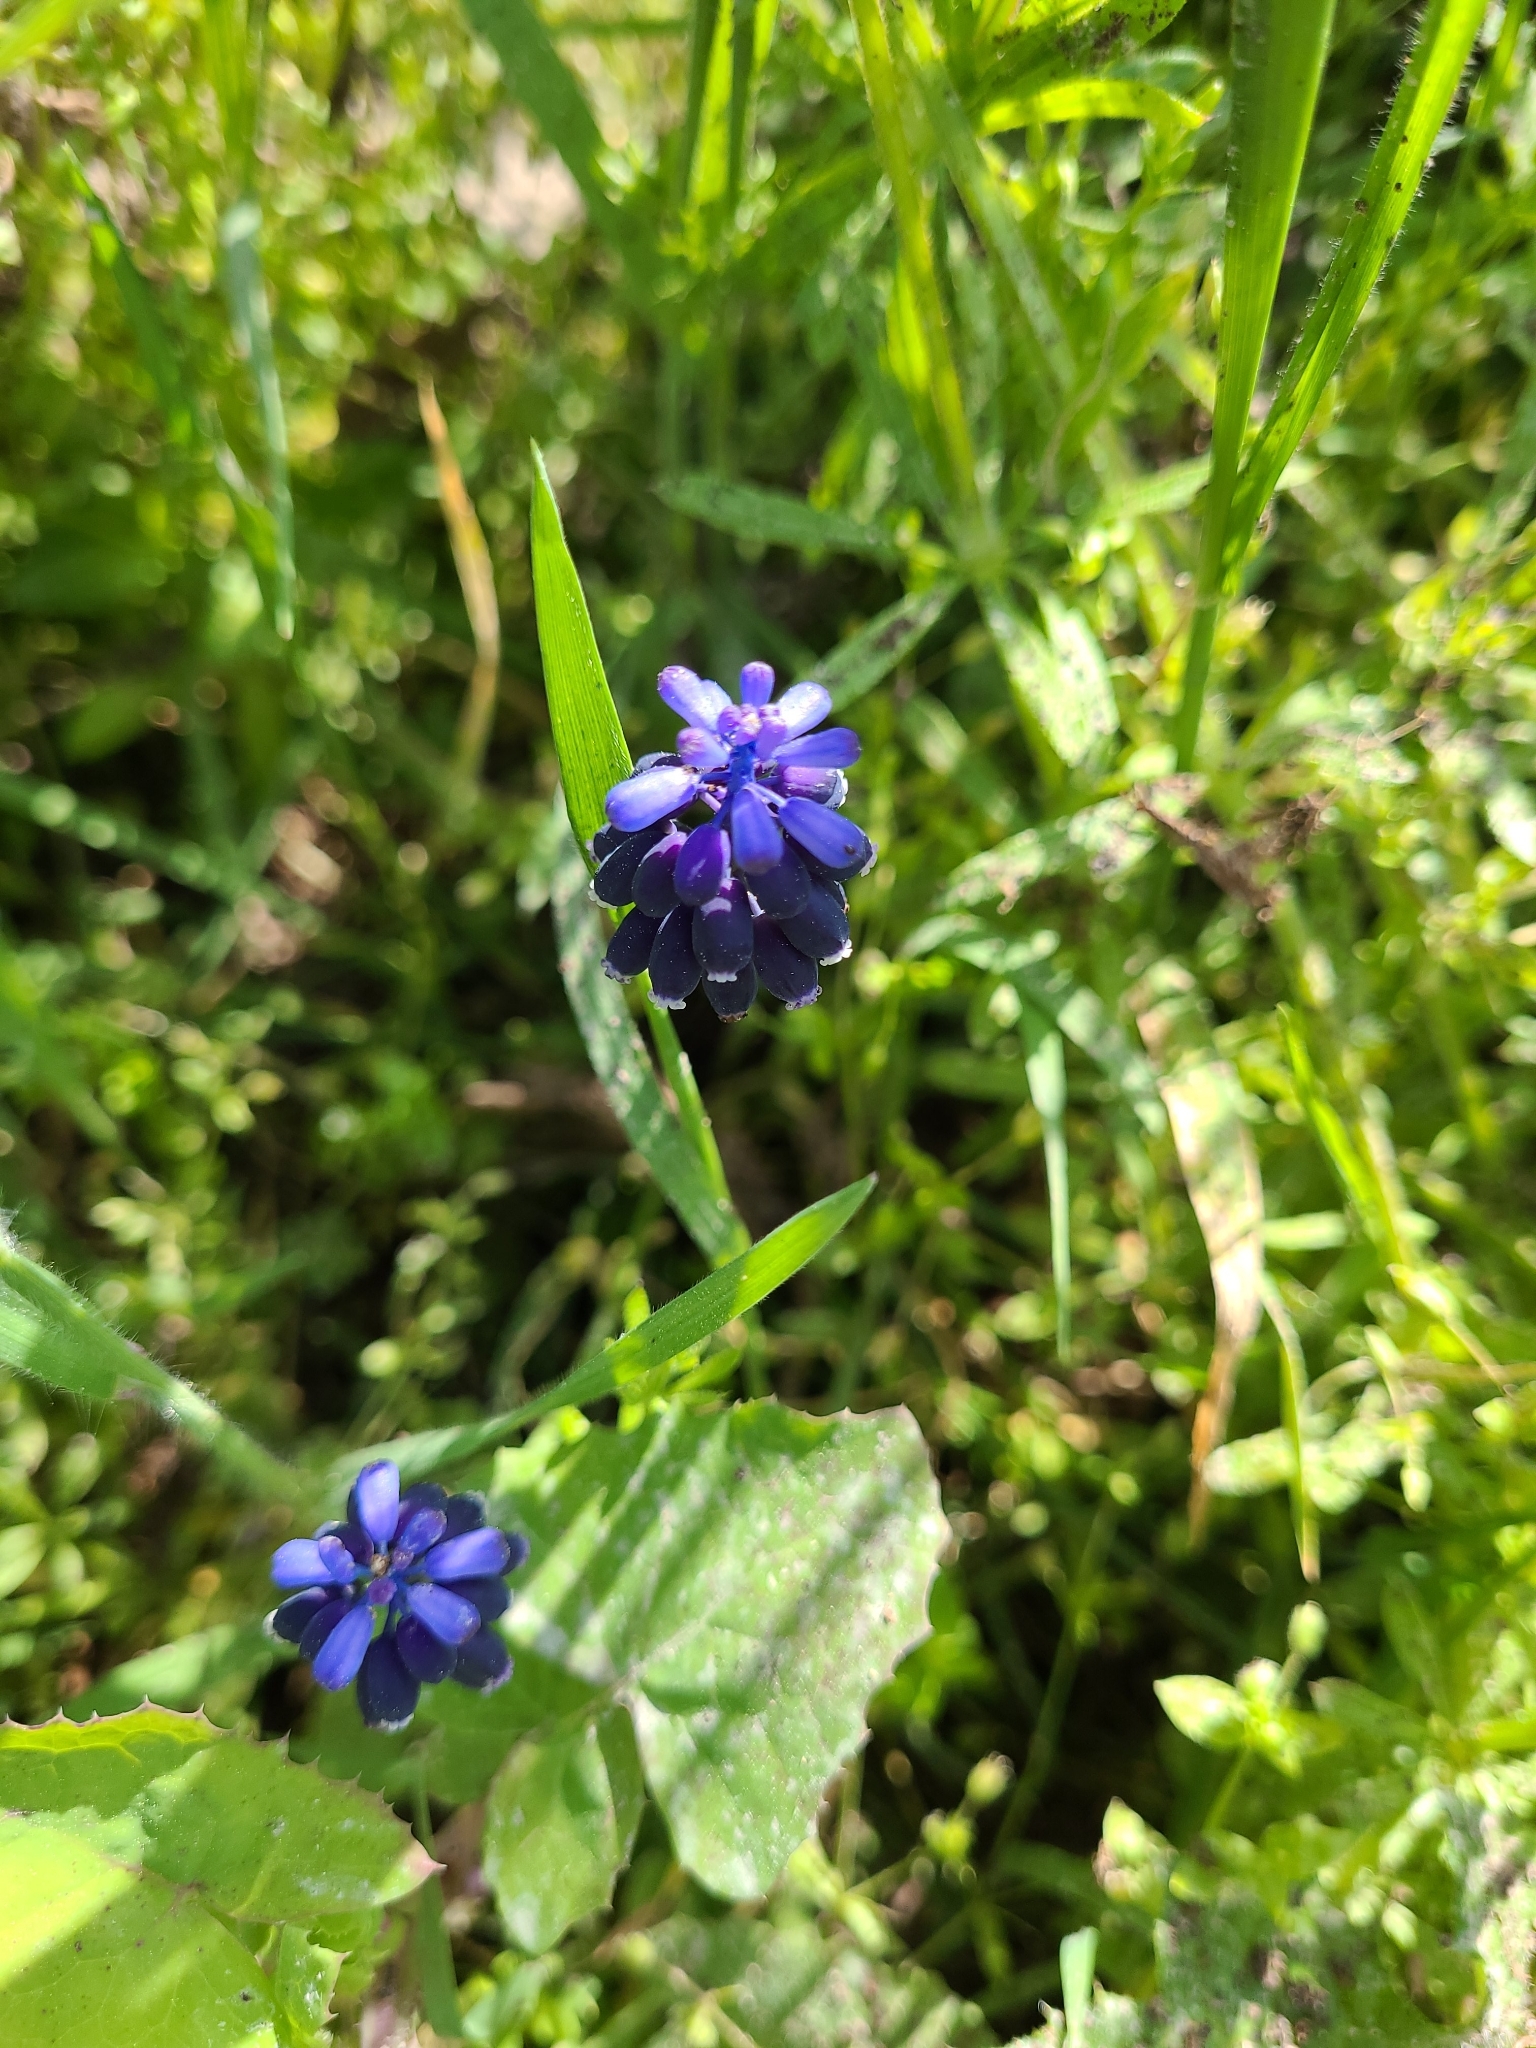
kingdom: Plantae
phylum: Tracheophyta
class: Liliopsida
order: Asparagales
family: Asparagaceae
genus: Muscari
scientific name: Muscari neglectum
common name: Grape-hyacinth
